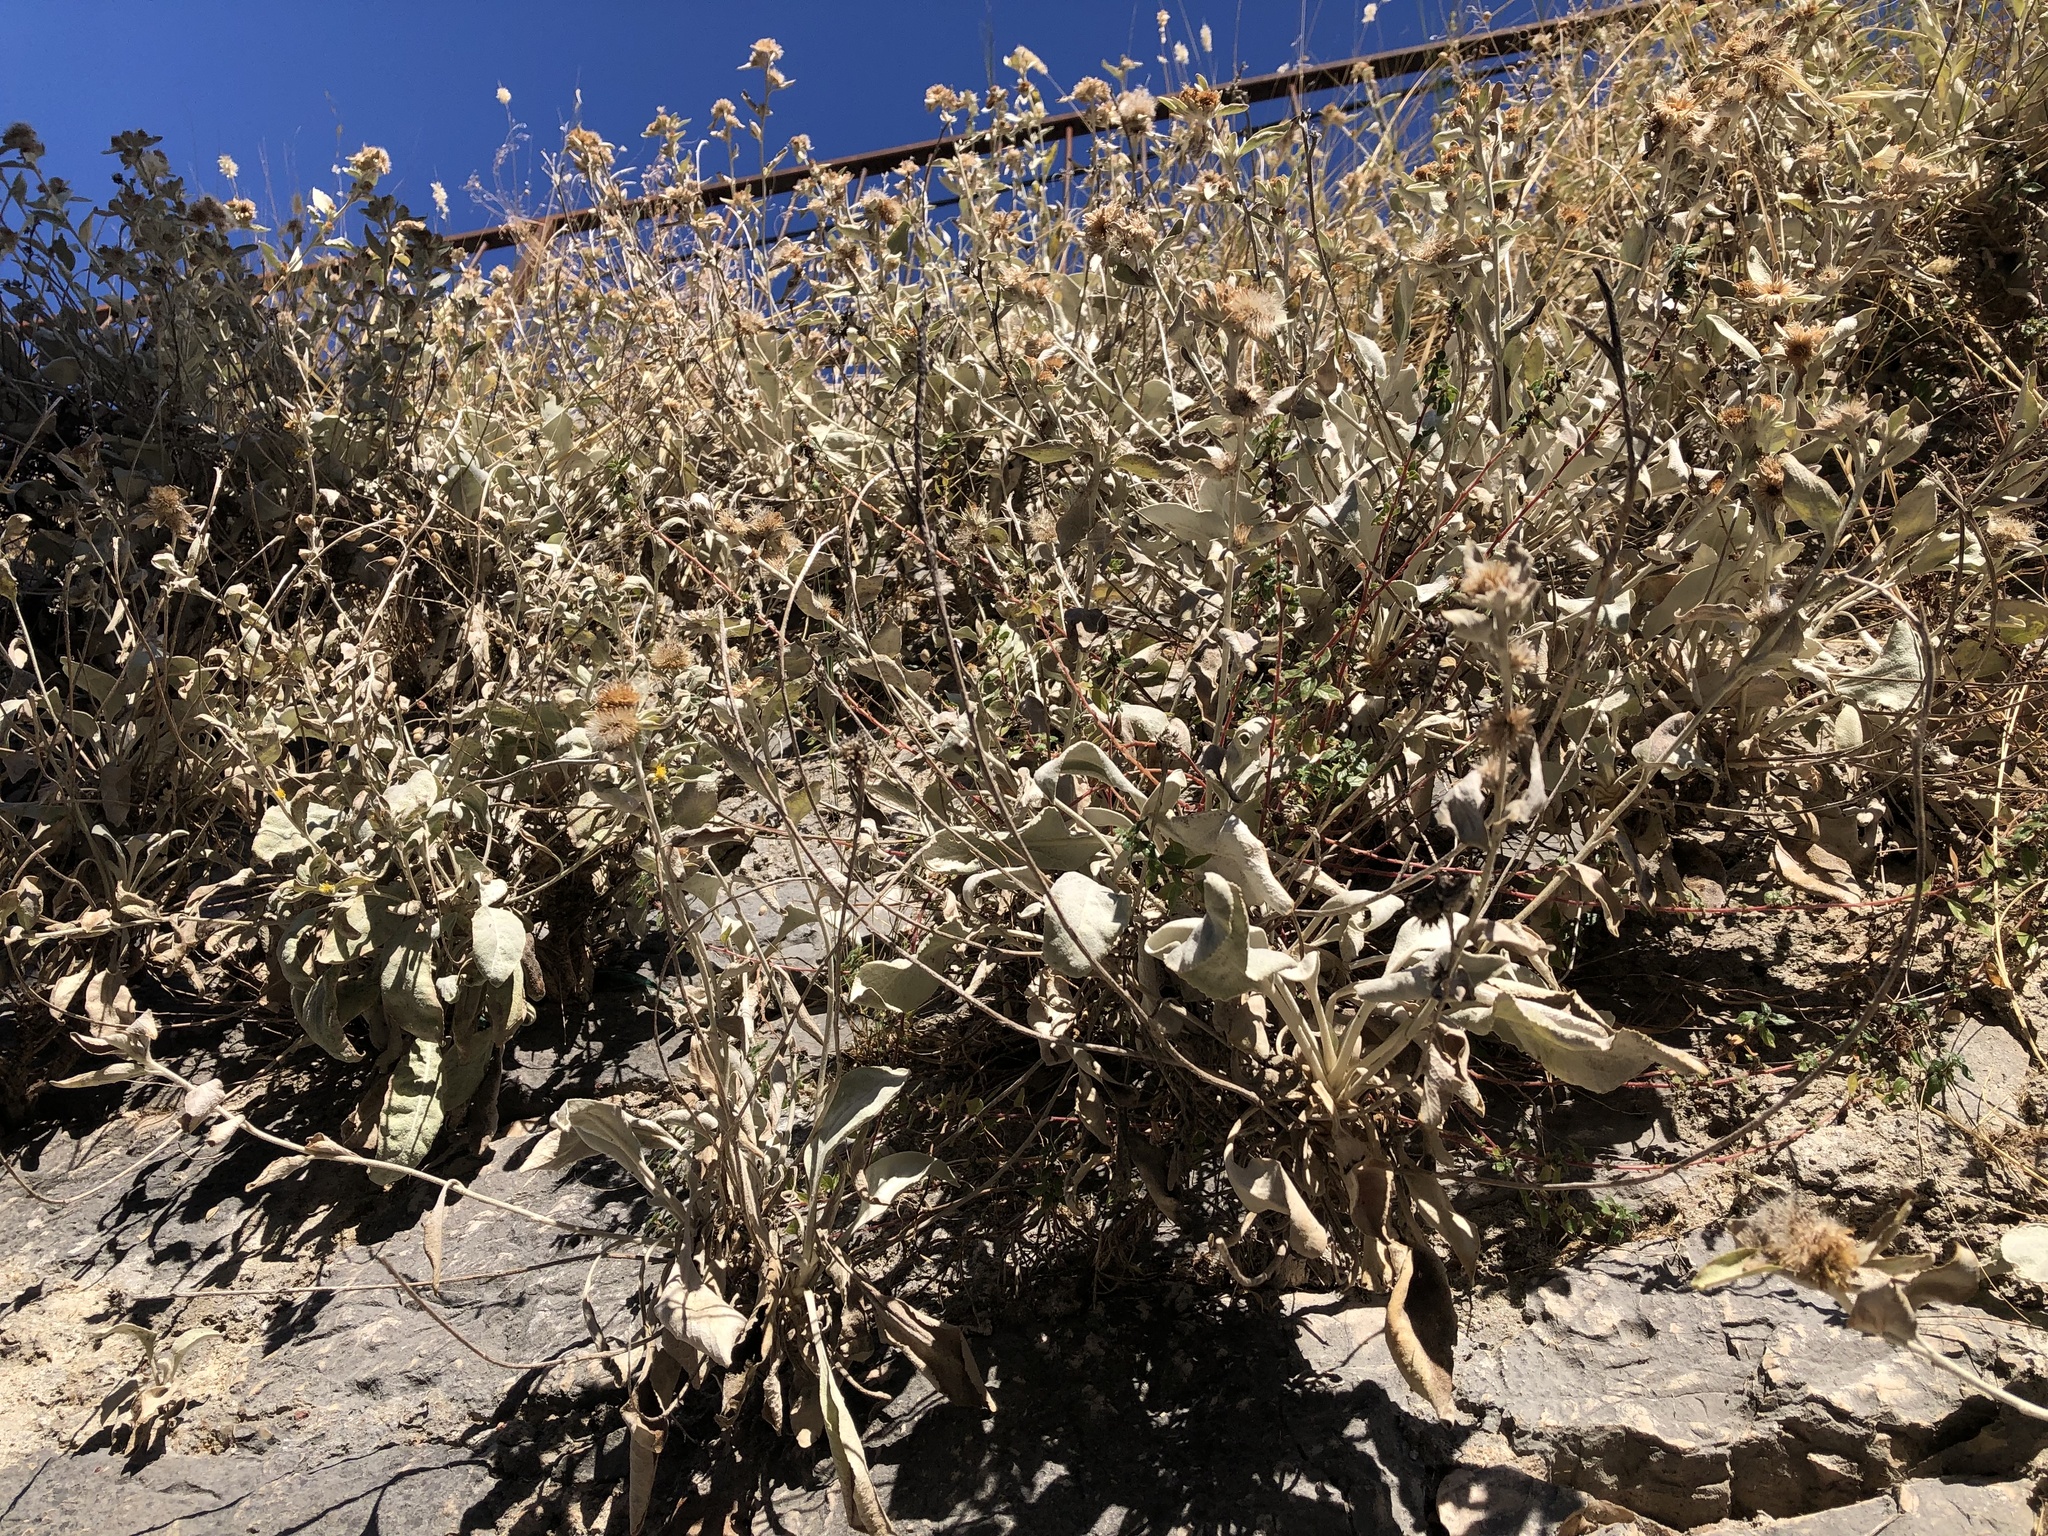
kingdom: Plantae
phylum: Tracheophyta
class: Magnoliopsida
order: Asterales
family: Asteraceae
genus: Pentanema
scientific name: Pentanema verbascifolium
